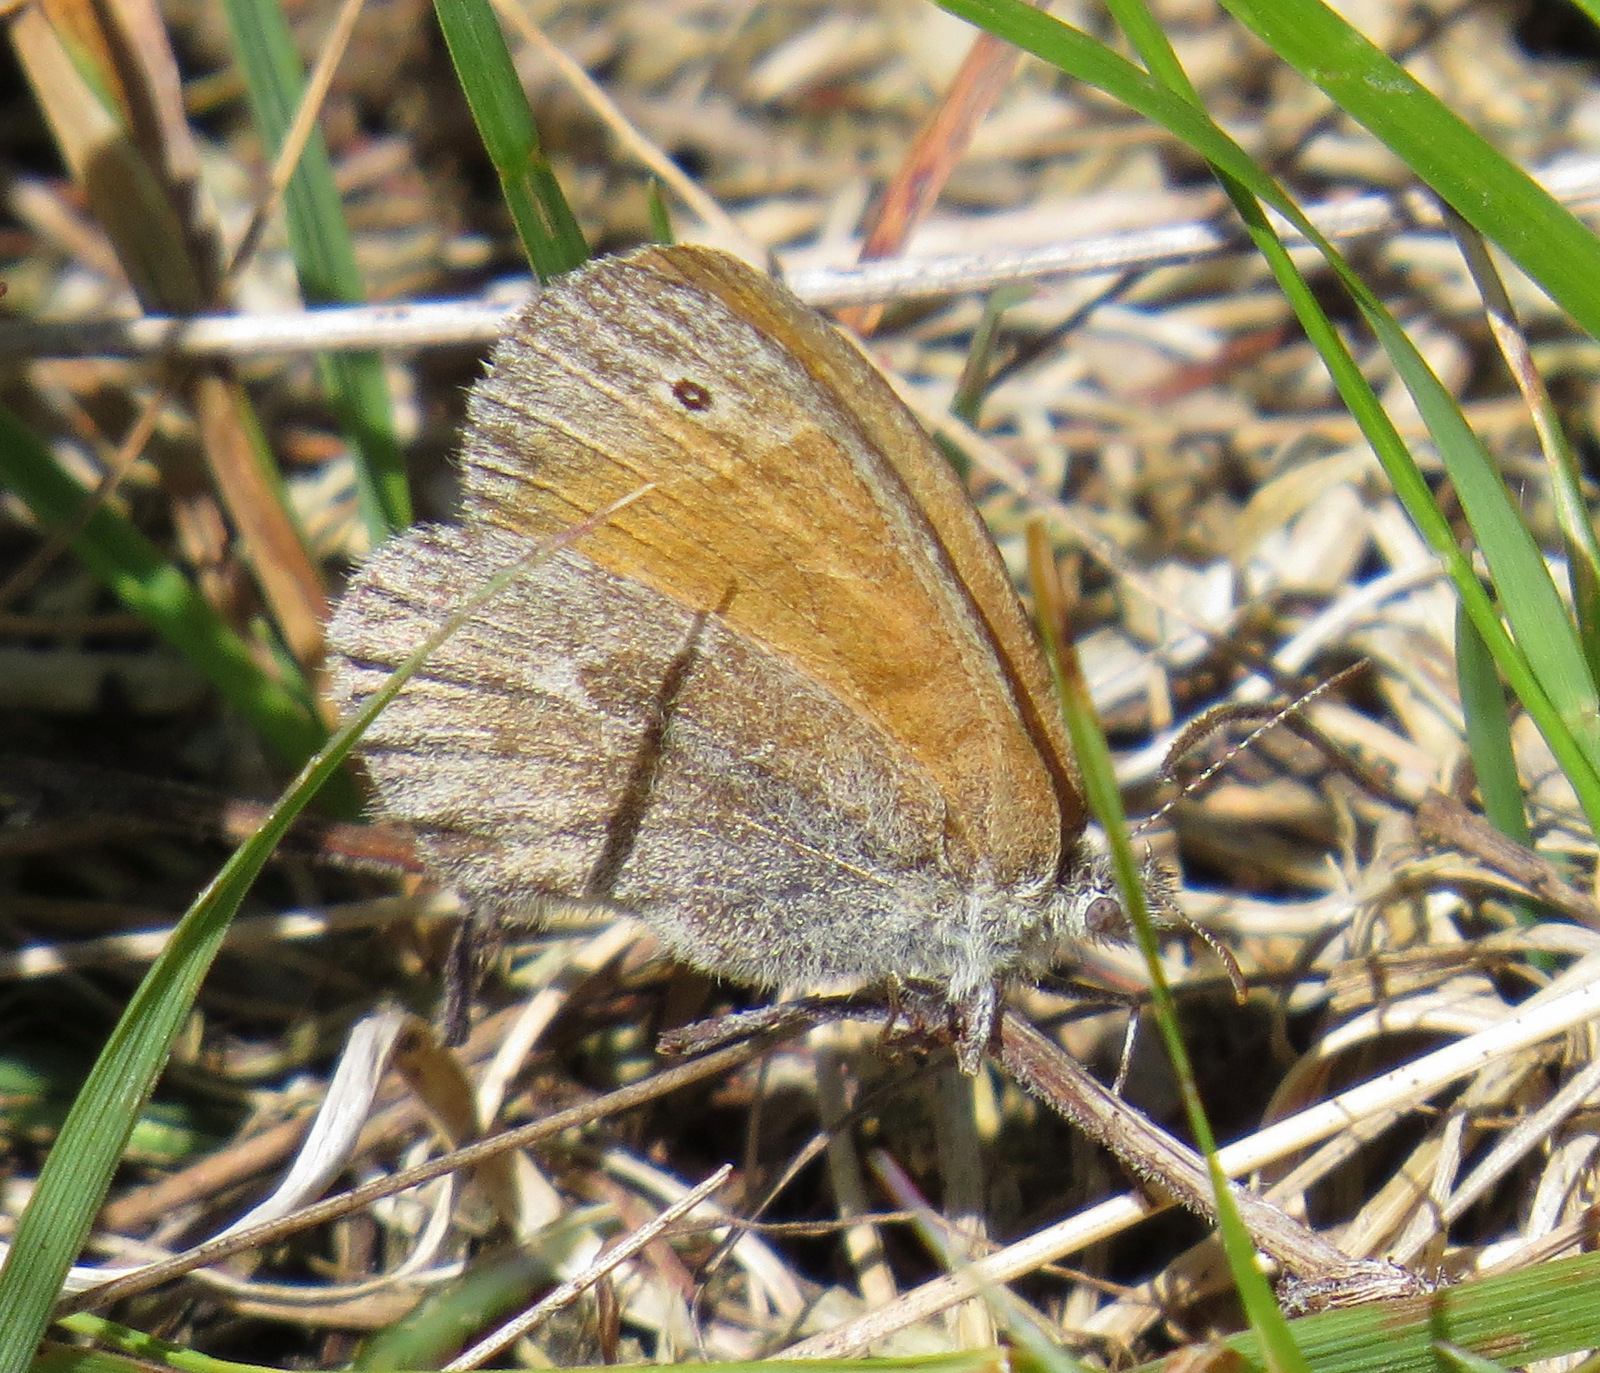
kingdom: Animalia
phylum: Arthropoda
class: Insecta
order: Lepidoptera
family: Nymphalidae
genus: Coenonympha
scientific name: Coenonympha california
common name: Common ringlet
